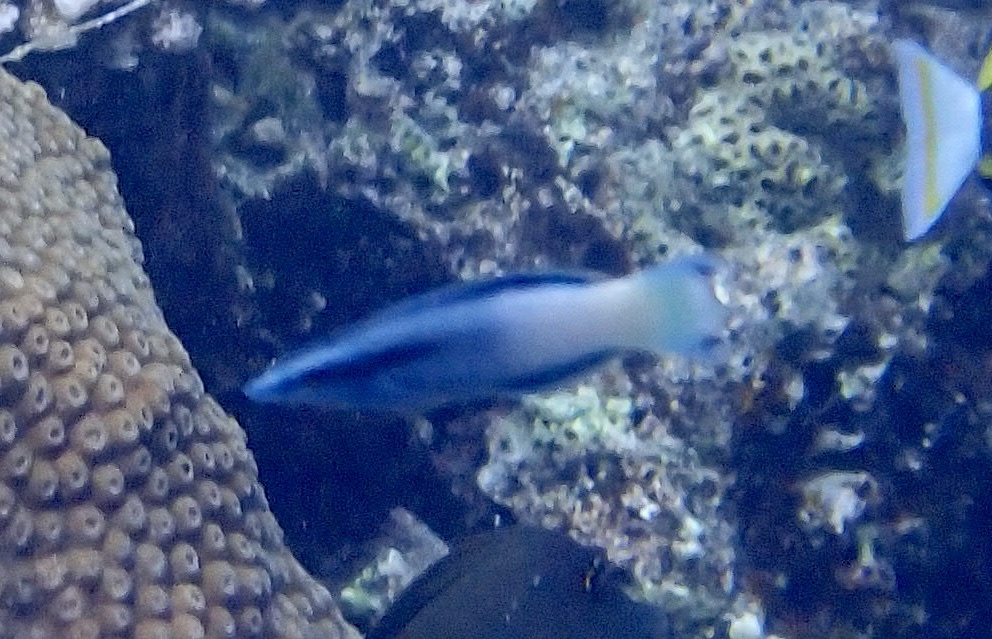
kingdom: Animalia
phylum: Chordata
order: Perciformes
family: Labridae
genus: Labroides
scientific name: Labroides bicolor
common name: Bicolor cleaner wrasse
